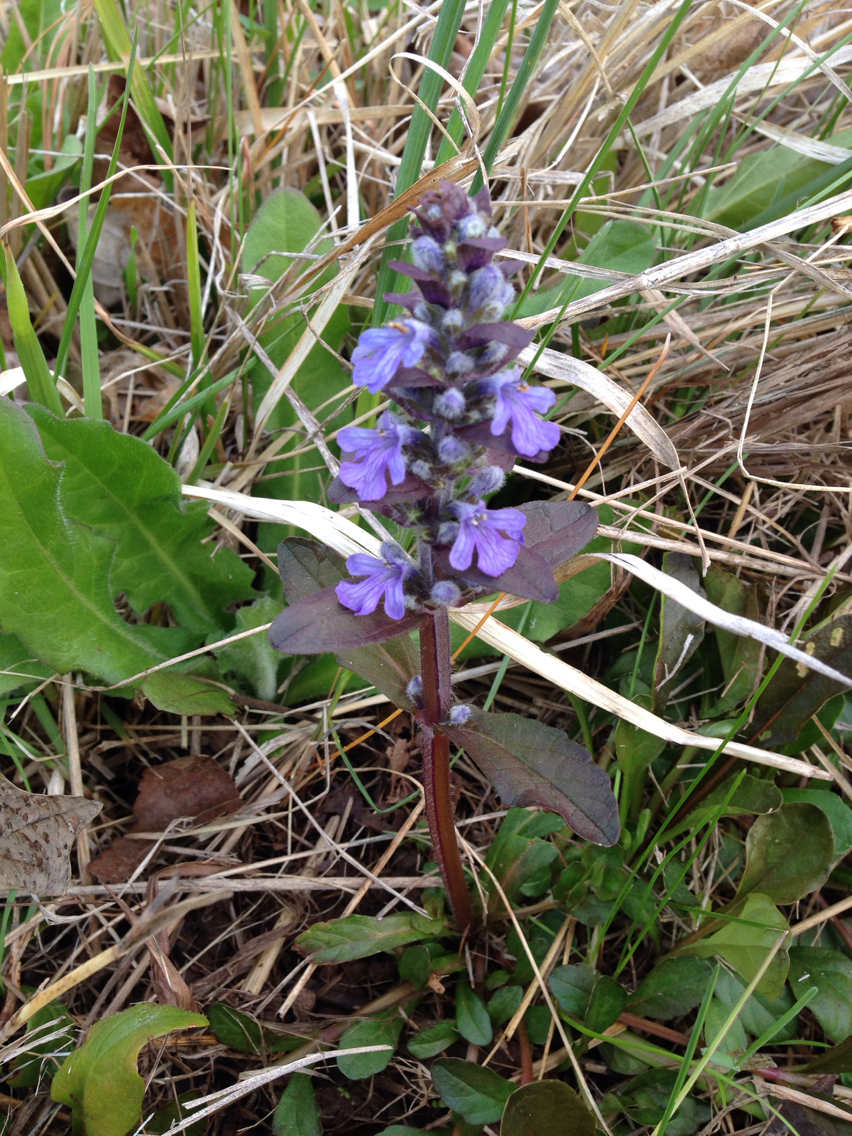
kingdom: Plantae
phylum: Tracheophyta
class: Magnoliopsida
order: Lamiales
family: Lamiaceae
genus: Ajuga
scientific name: Ajuga reptans
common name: Bugle
